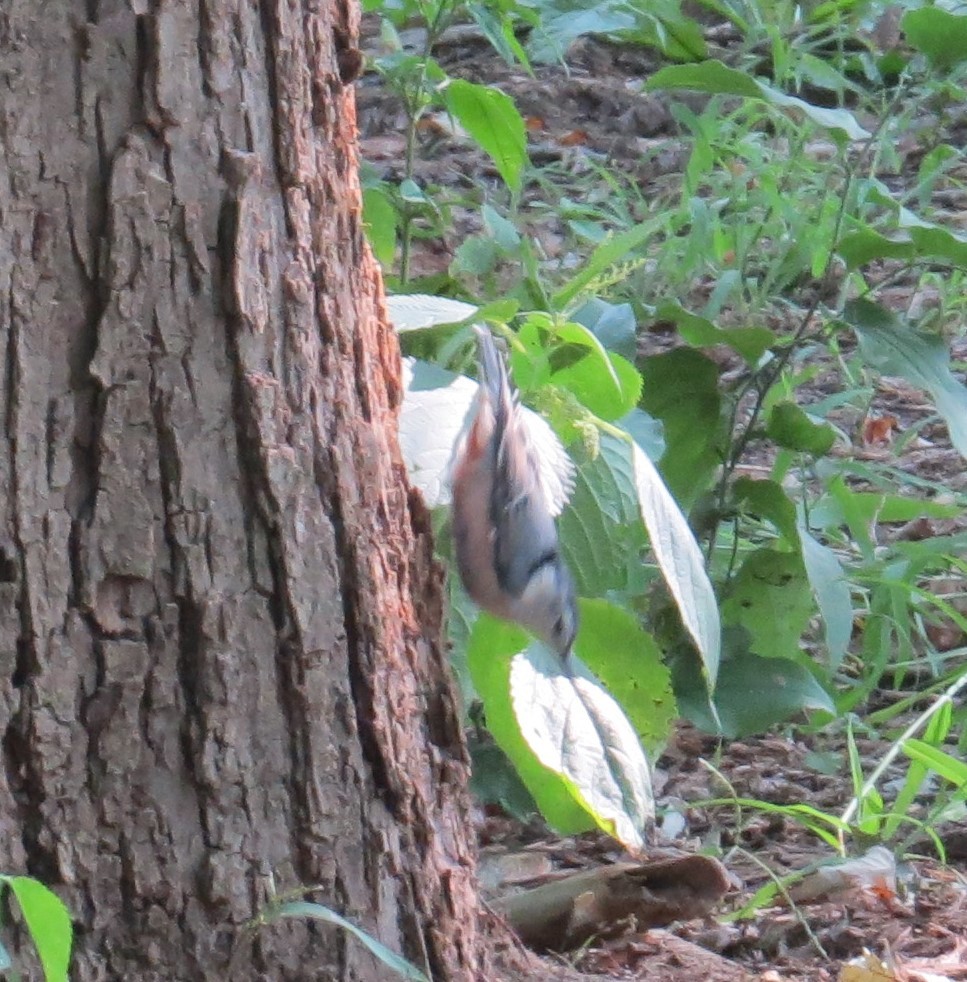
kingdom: Animalia
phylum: Chordata
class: Aves
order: Passeriformes
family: Sittidae
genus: Sitta
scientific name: Sitta carolinensis
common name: White-breasted nuthatch
